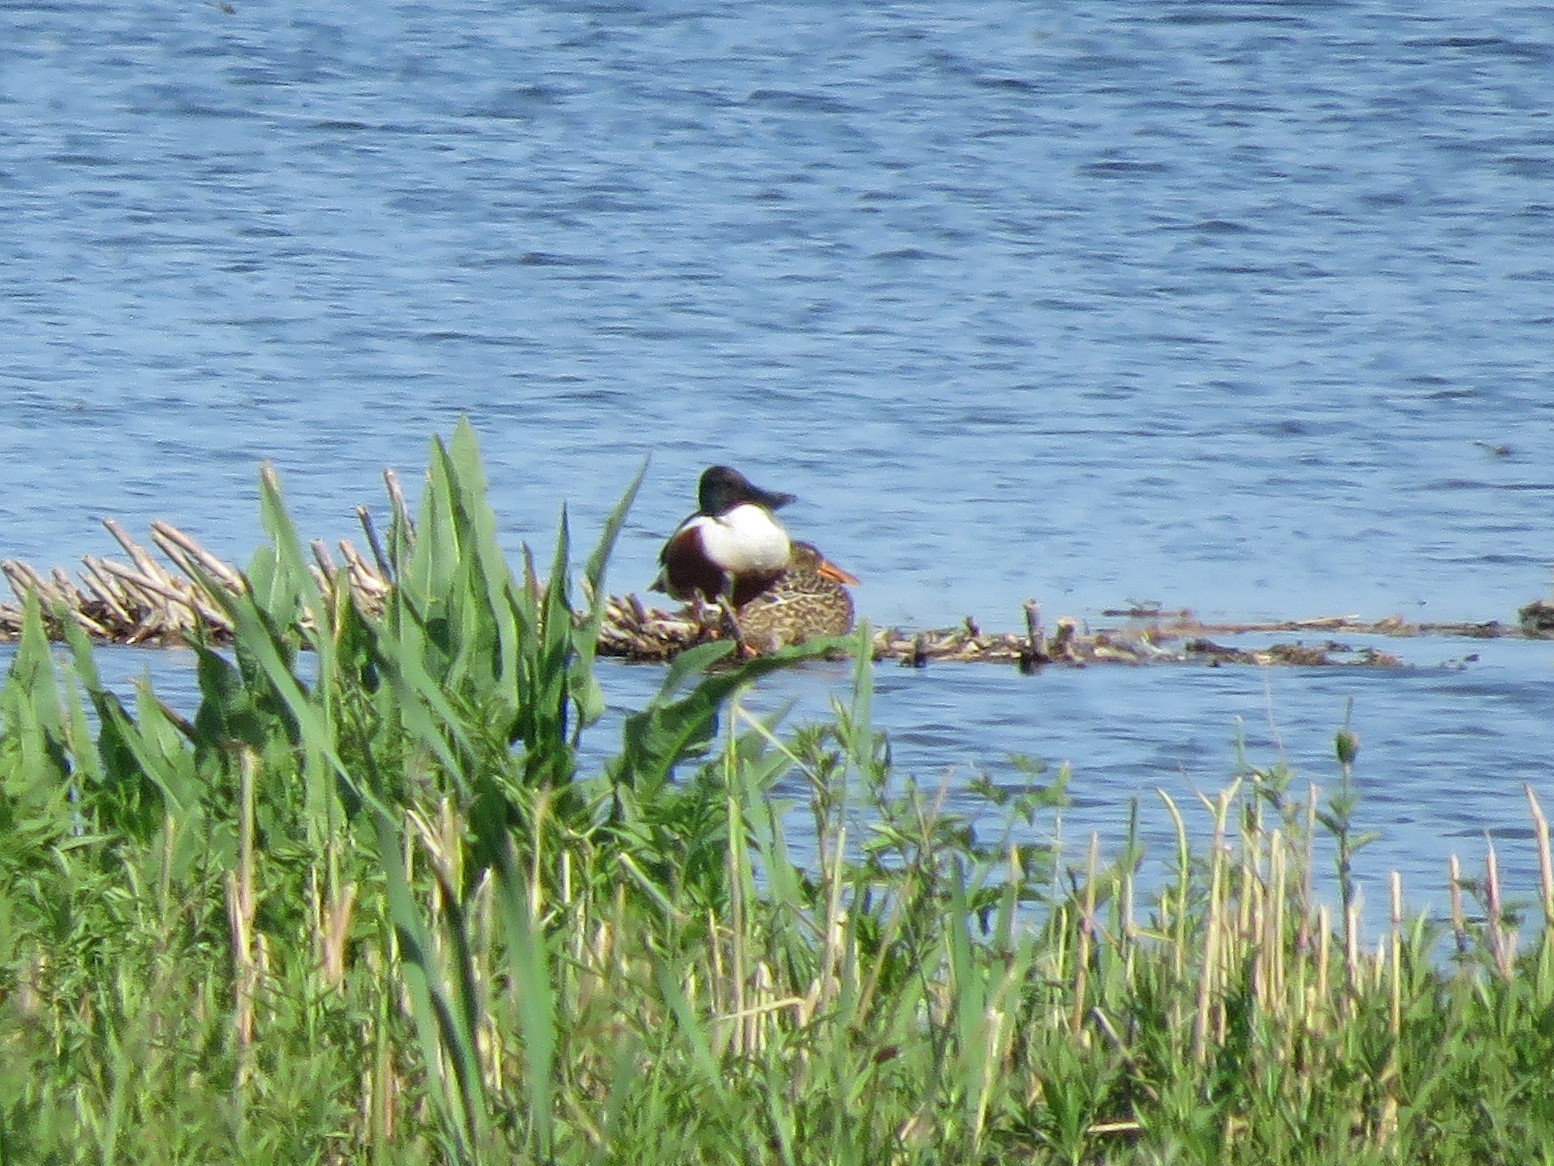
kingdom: Animalia
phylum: Chordata
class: Aves
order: Anseriformes
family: Anatidae
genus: Spatula
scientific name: Spatula clypeata
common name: Northern shoveler
